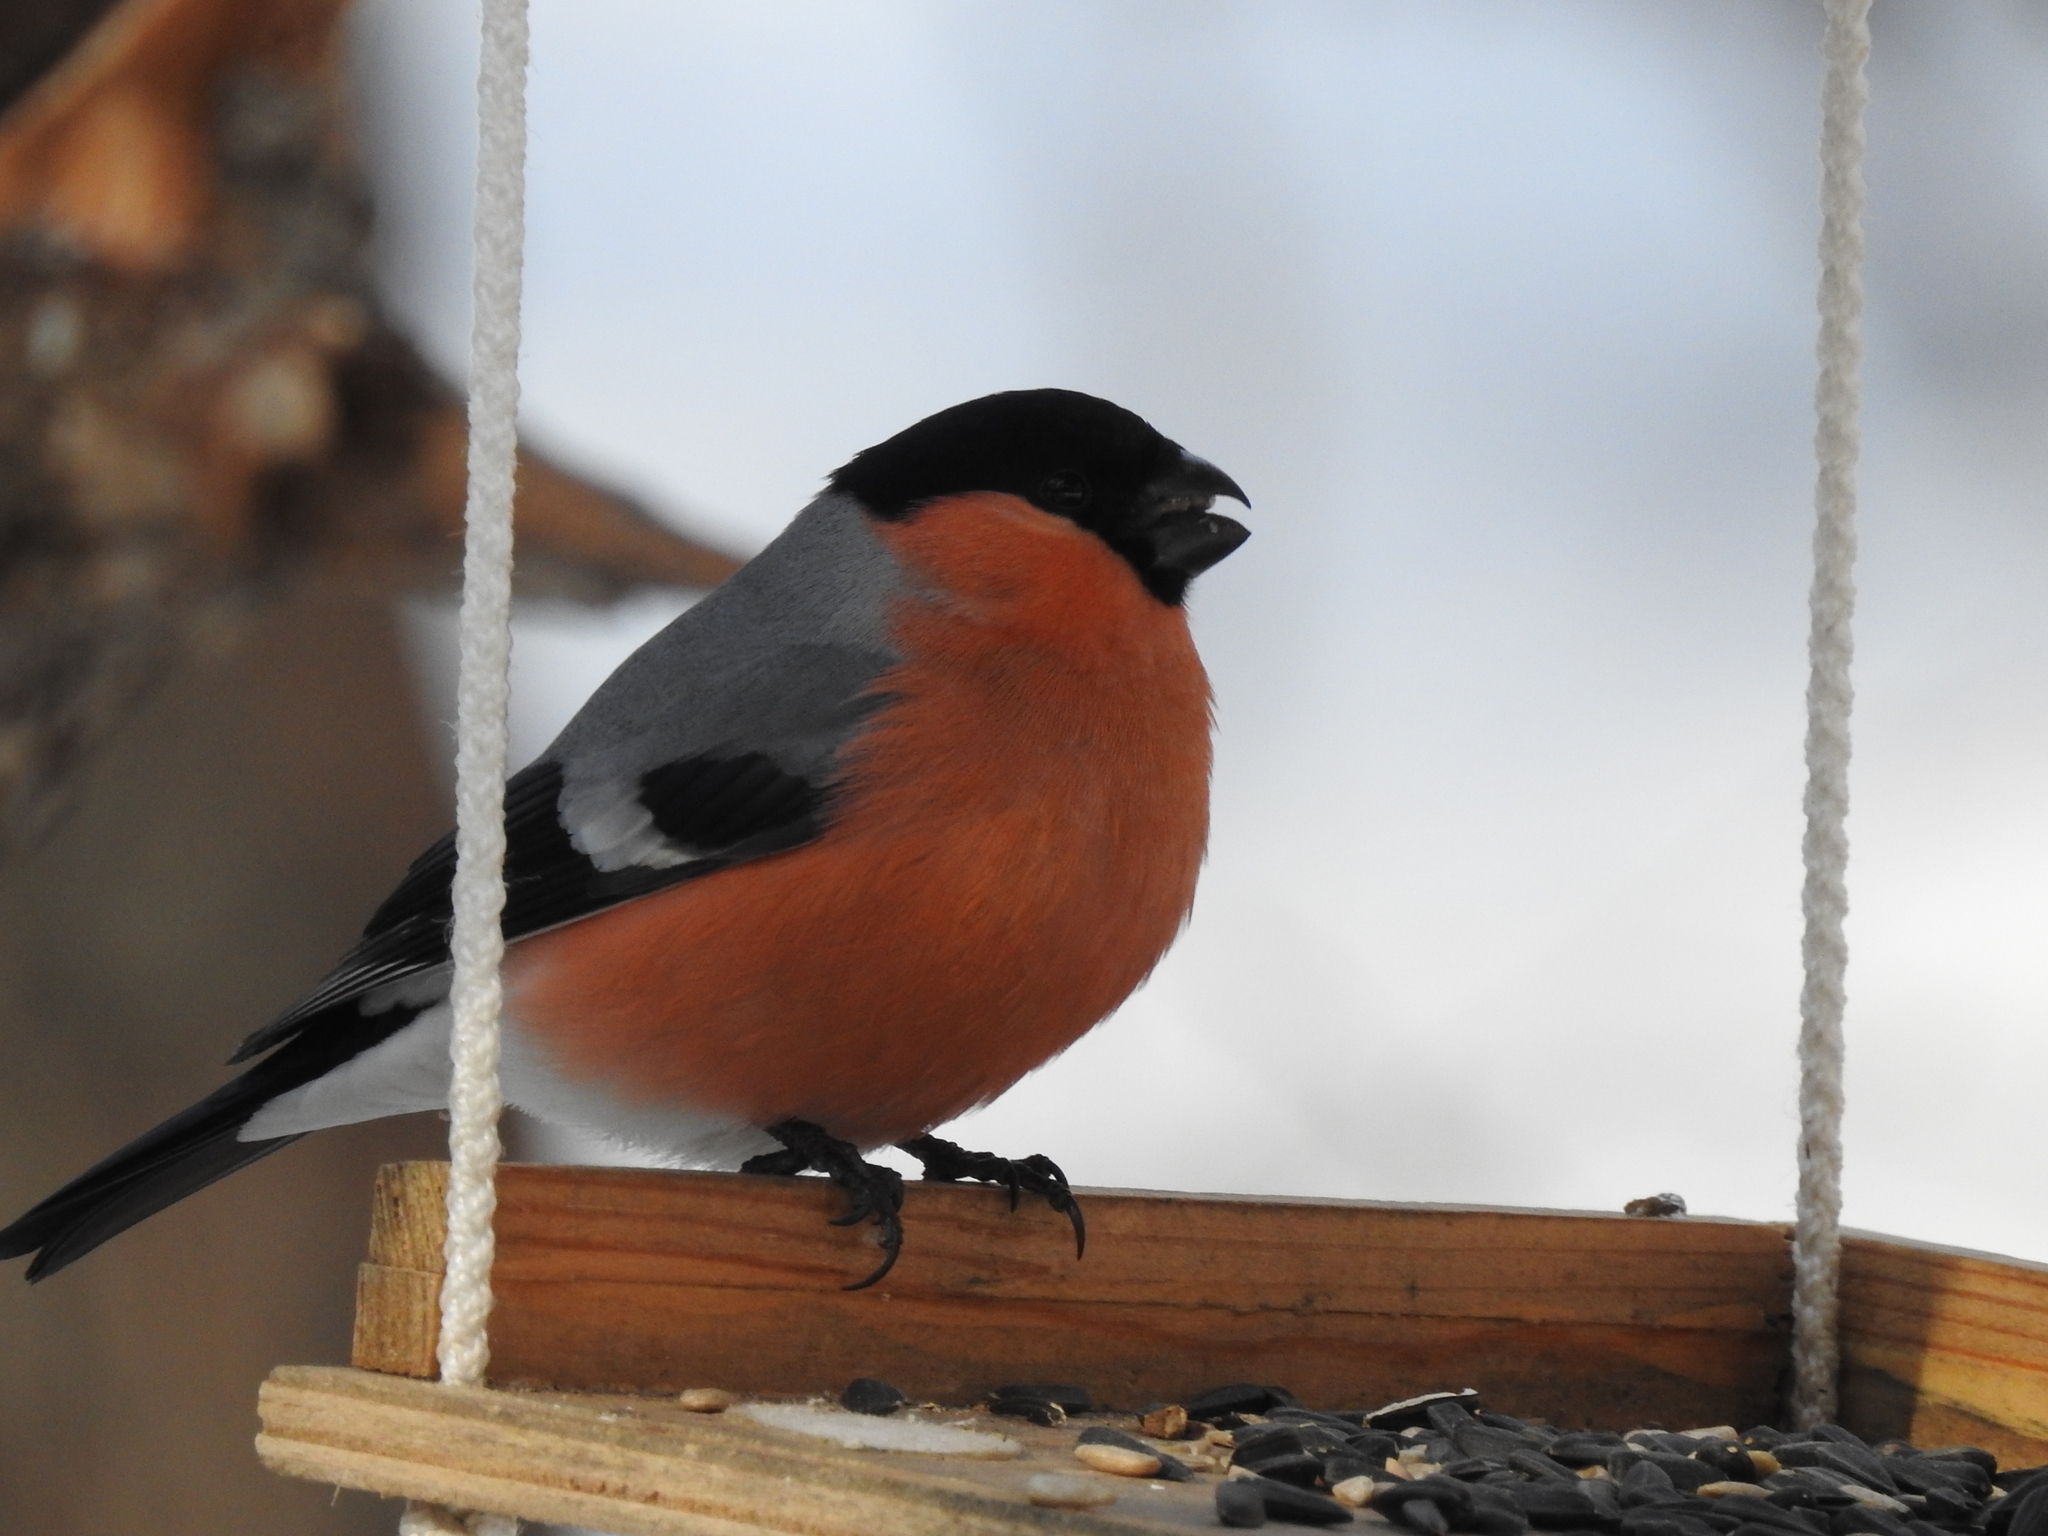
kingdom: Animalia
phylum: Chordata
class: Aves
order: Passeriformes
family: Fringillidae
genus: Pyrrhula
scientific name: Pyrrhula pyrrhula
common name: Eurasian bullfinch
